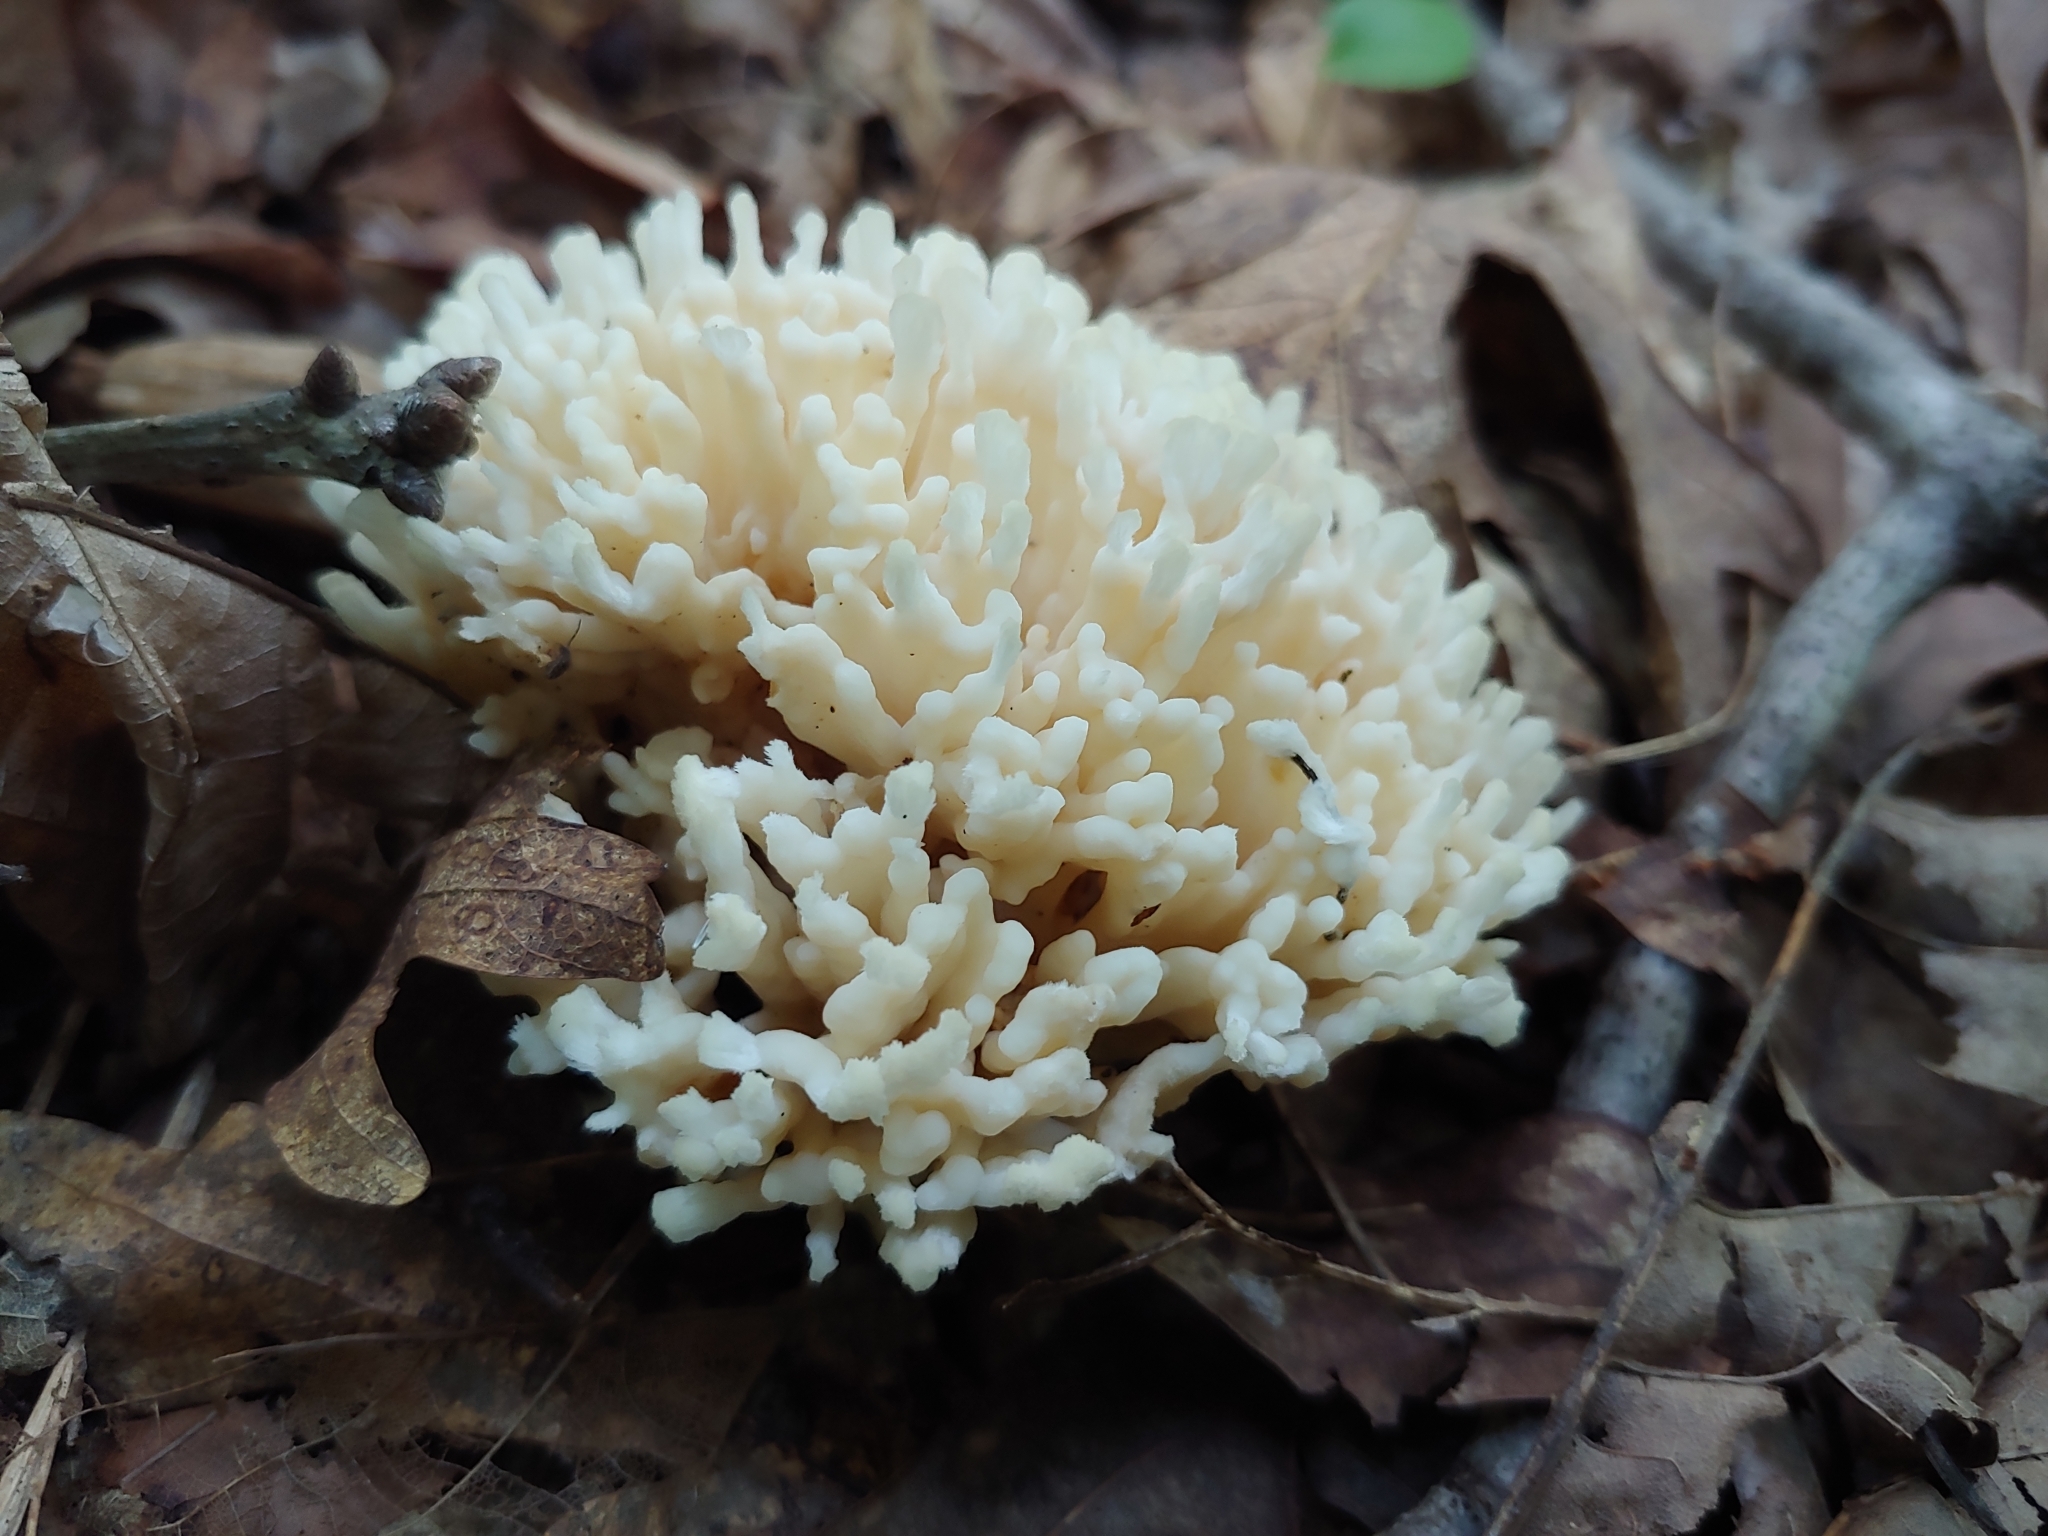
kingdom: Fungi
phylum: Basidiomycota
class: Agaricomycetes
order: Sebacinales
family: Sebacinaceae
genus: Sebacina
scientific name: Sebacina schweinitzii
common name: Jellied false coral fungus
